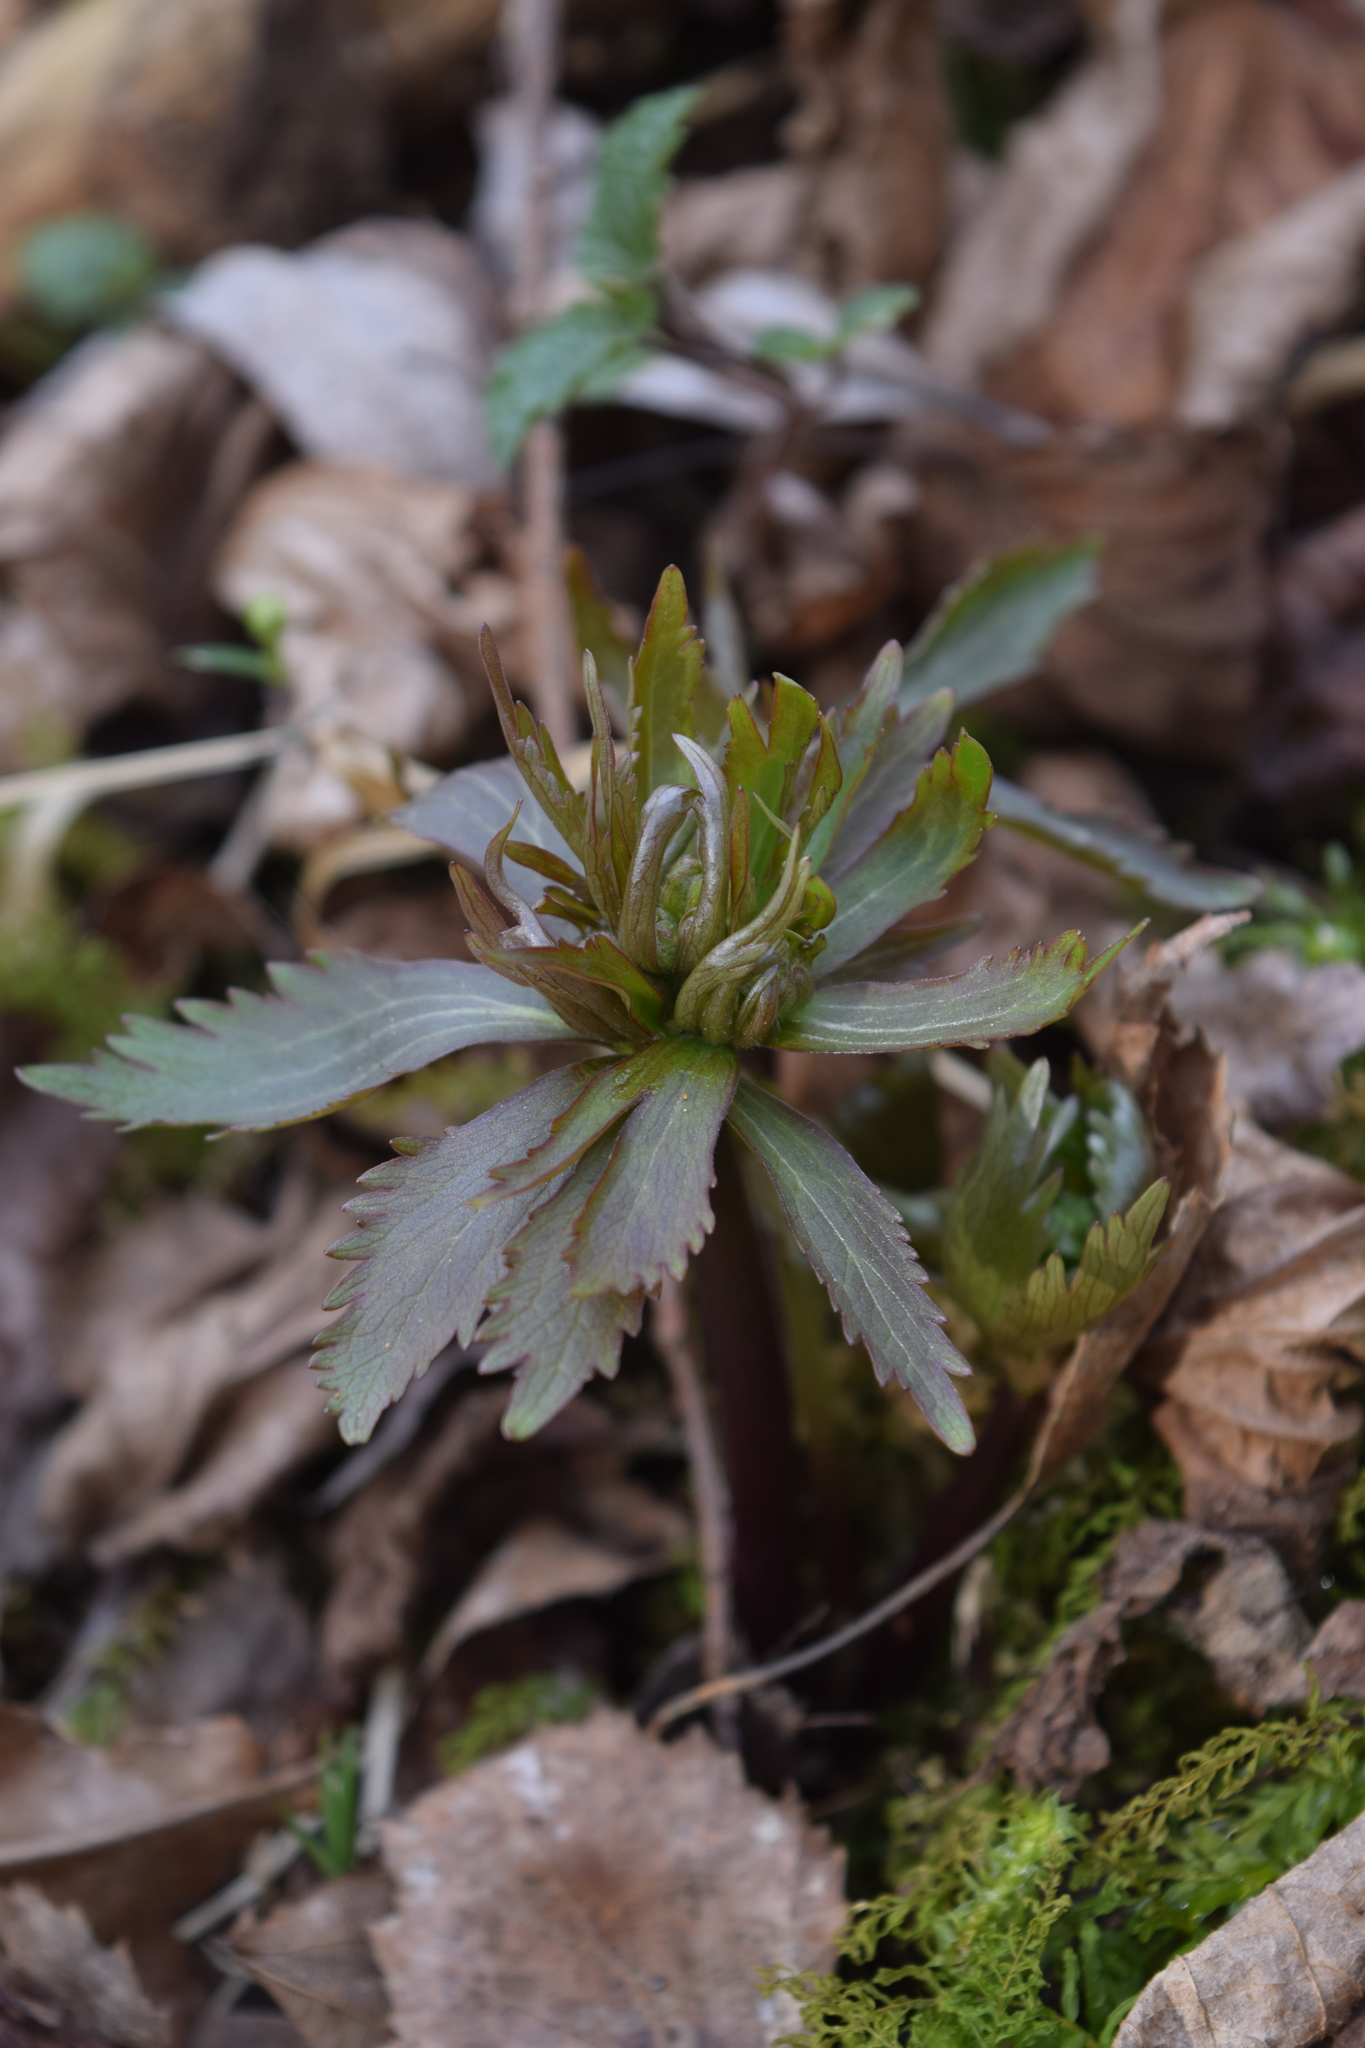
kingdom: Plantae
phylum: Tracheophyta
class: Magnoliopsida
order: Ranunculales
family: Ranunculaceae
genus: Ranunculus
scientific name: Ranunculus cassubicus
